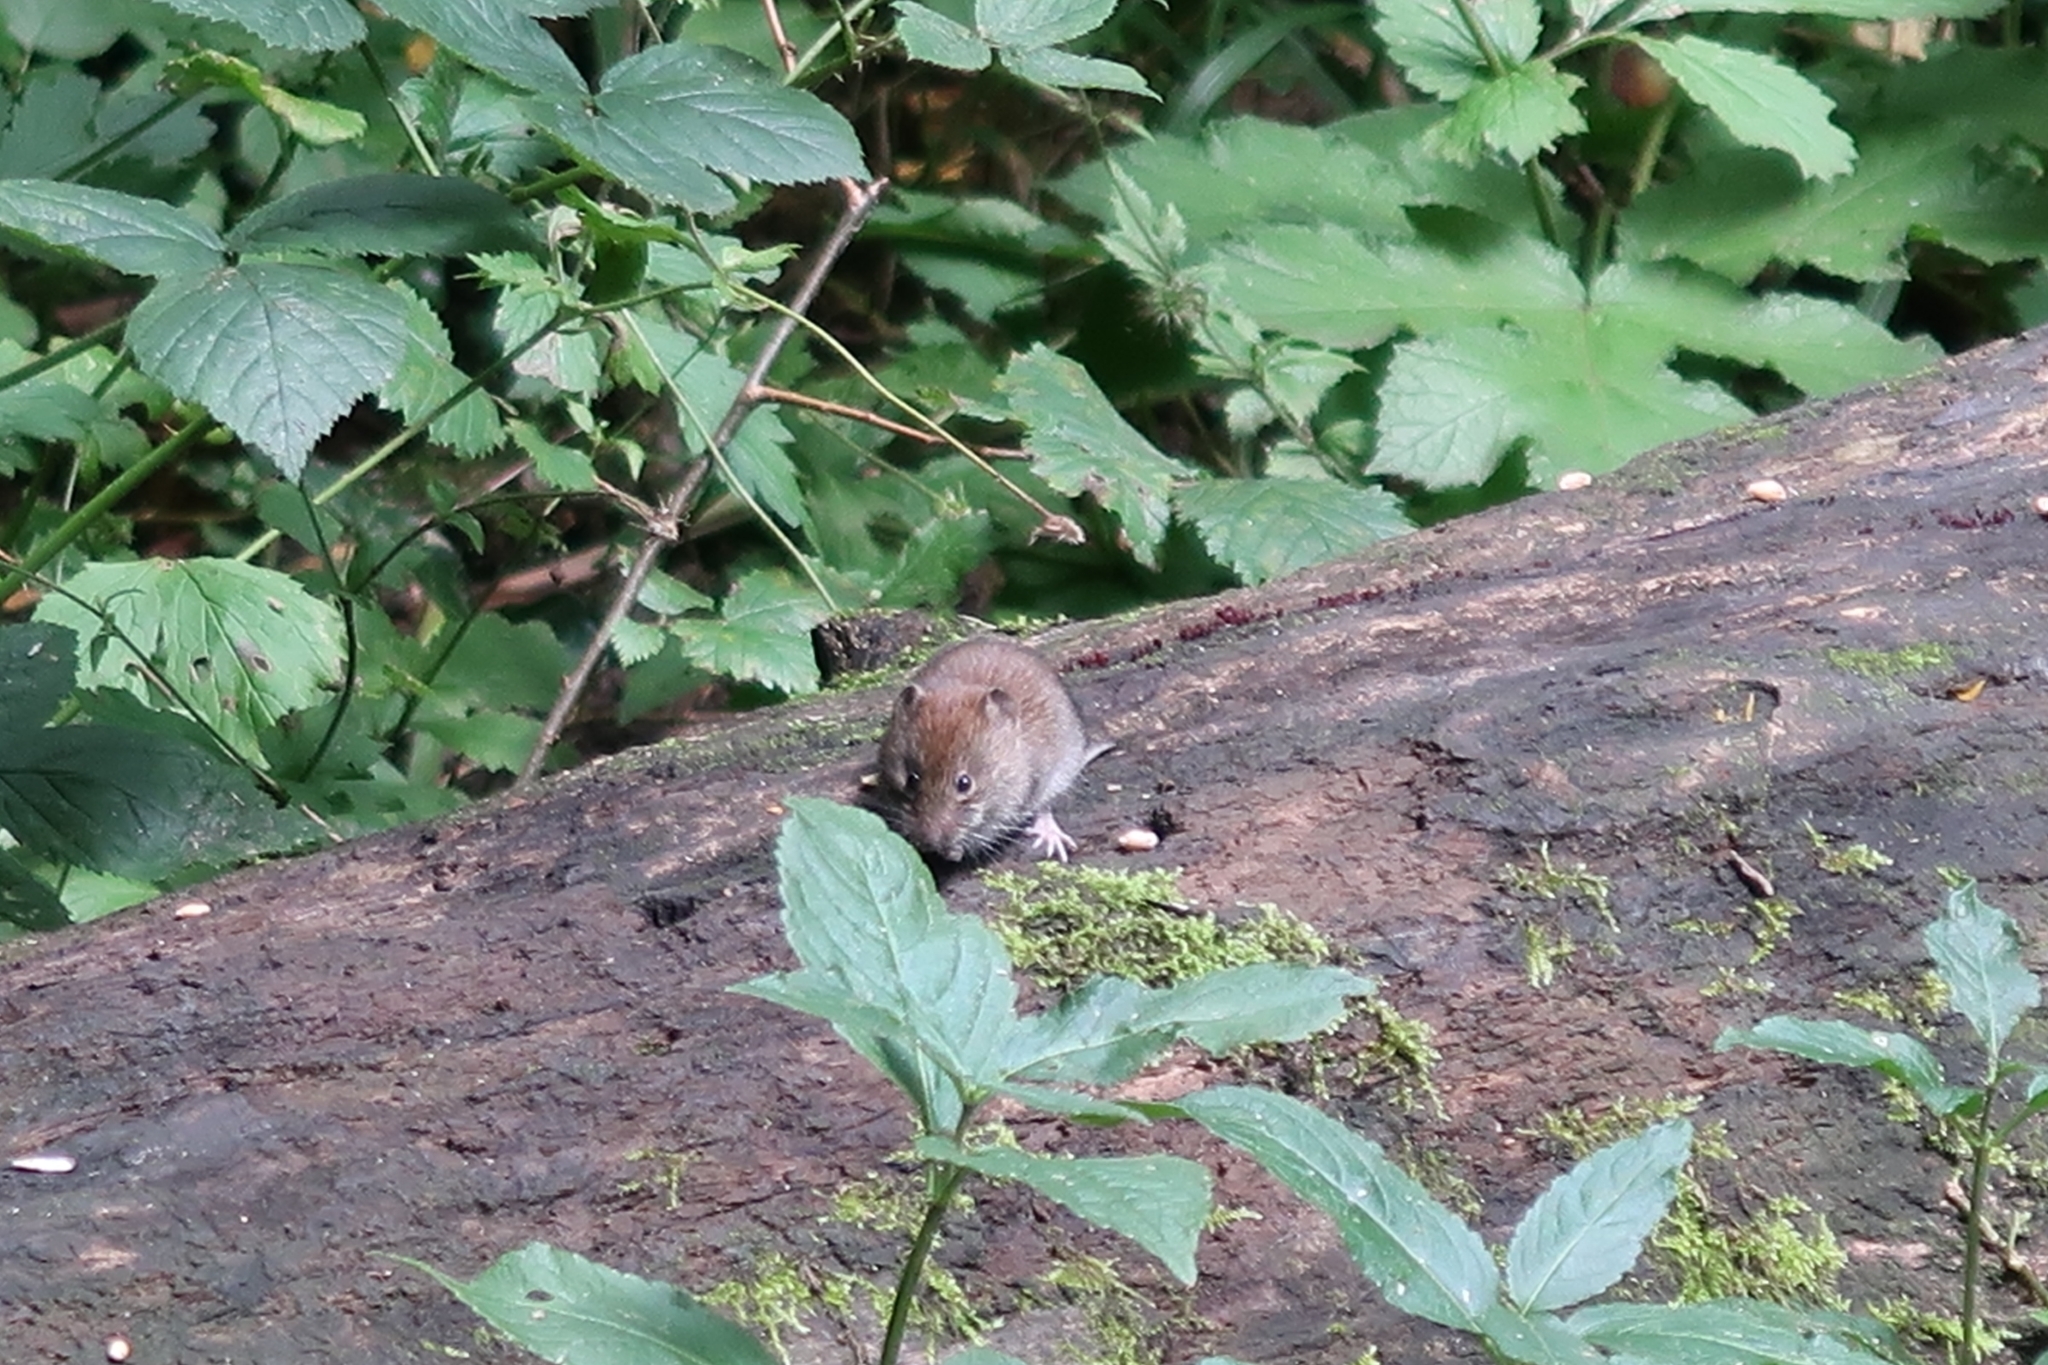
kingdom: Animalia
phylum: Chordata
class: Mammalia
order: Rodentia
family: Cricetidae
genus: Myodes
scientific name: Myodes glareolus
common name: Bank vole
